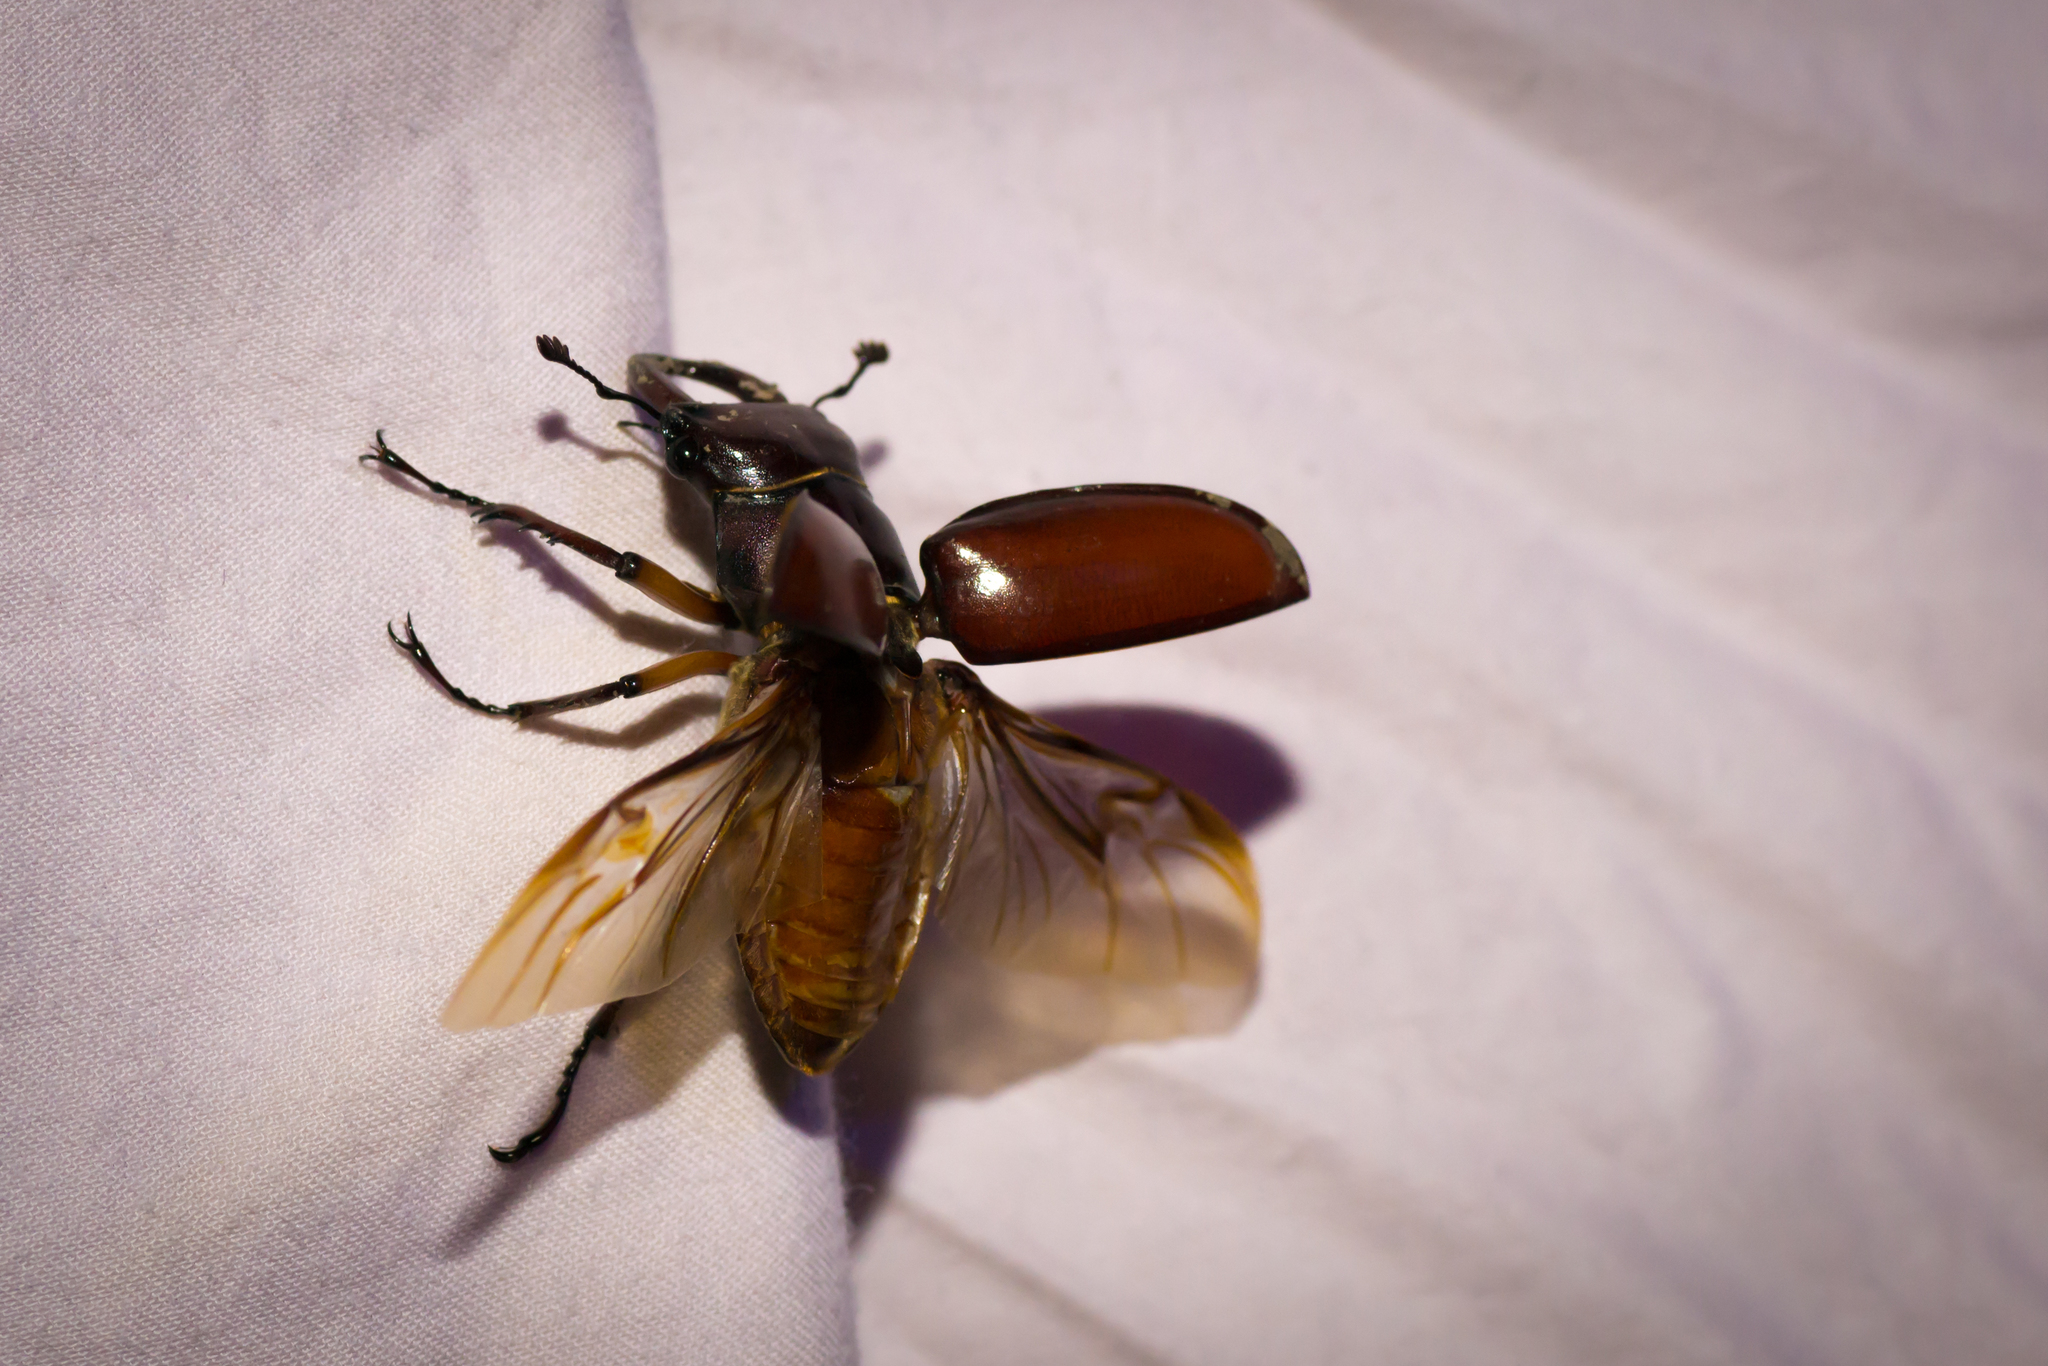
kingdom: Animalia
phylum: Arthropoda
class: Insecta
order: Coleoptera
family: Lucanidae
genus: Lucanus
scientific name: Lucanus capreolus
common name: Stag beetle
